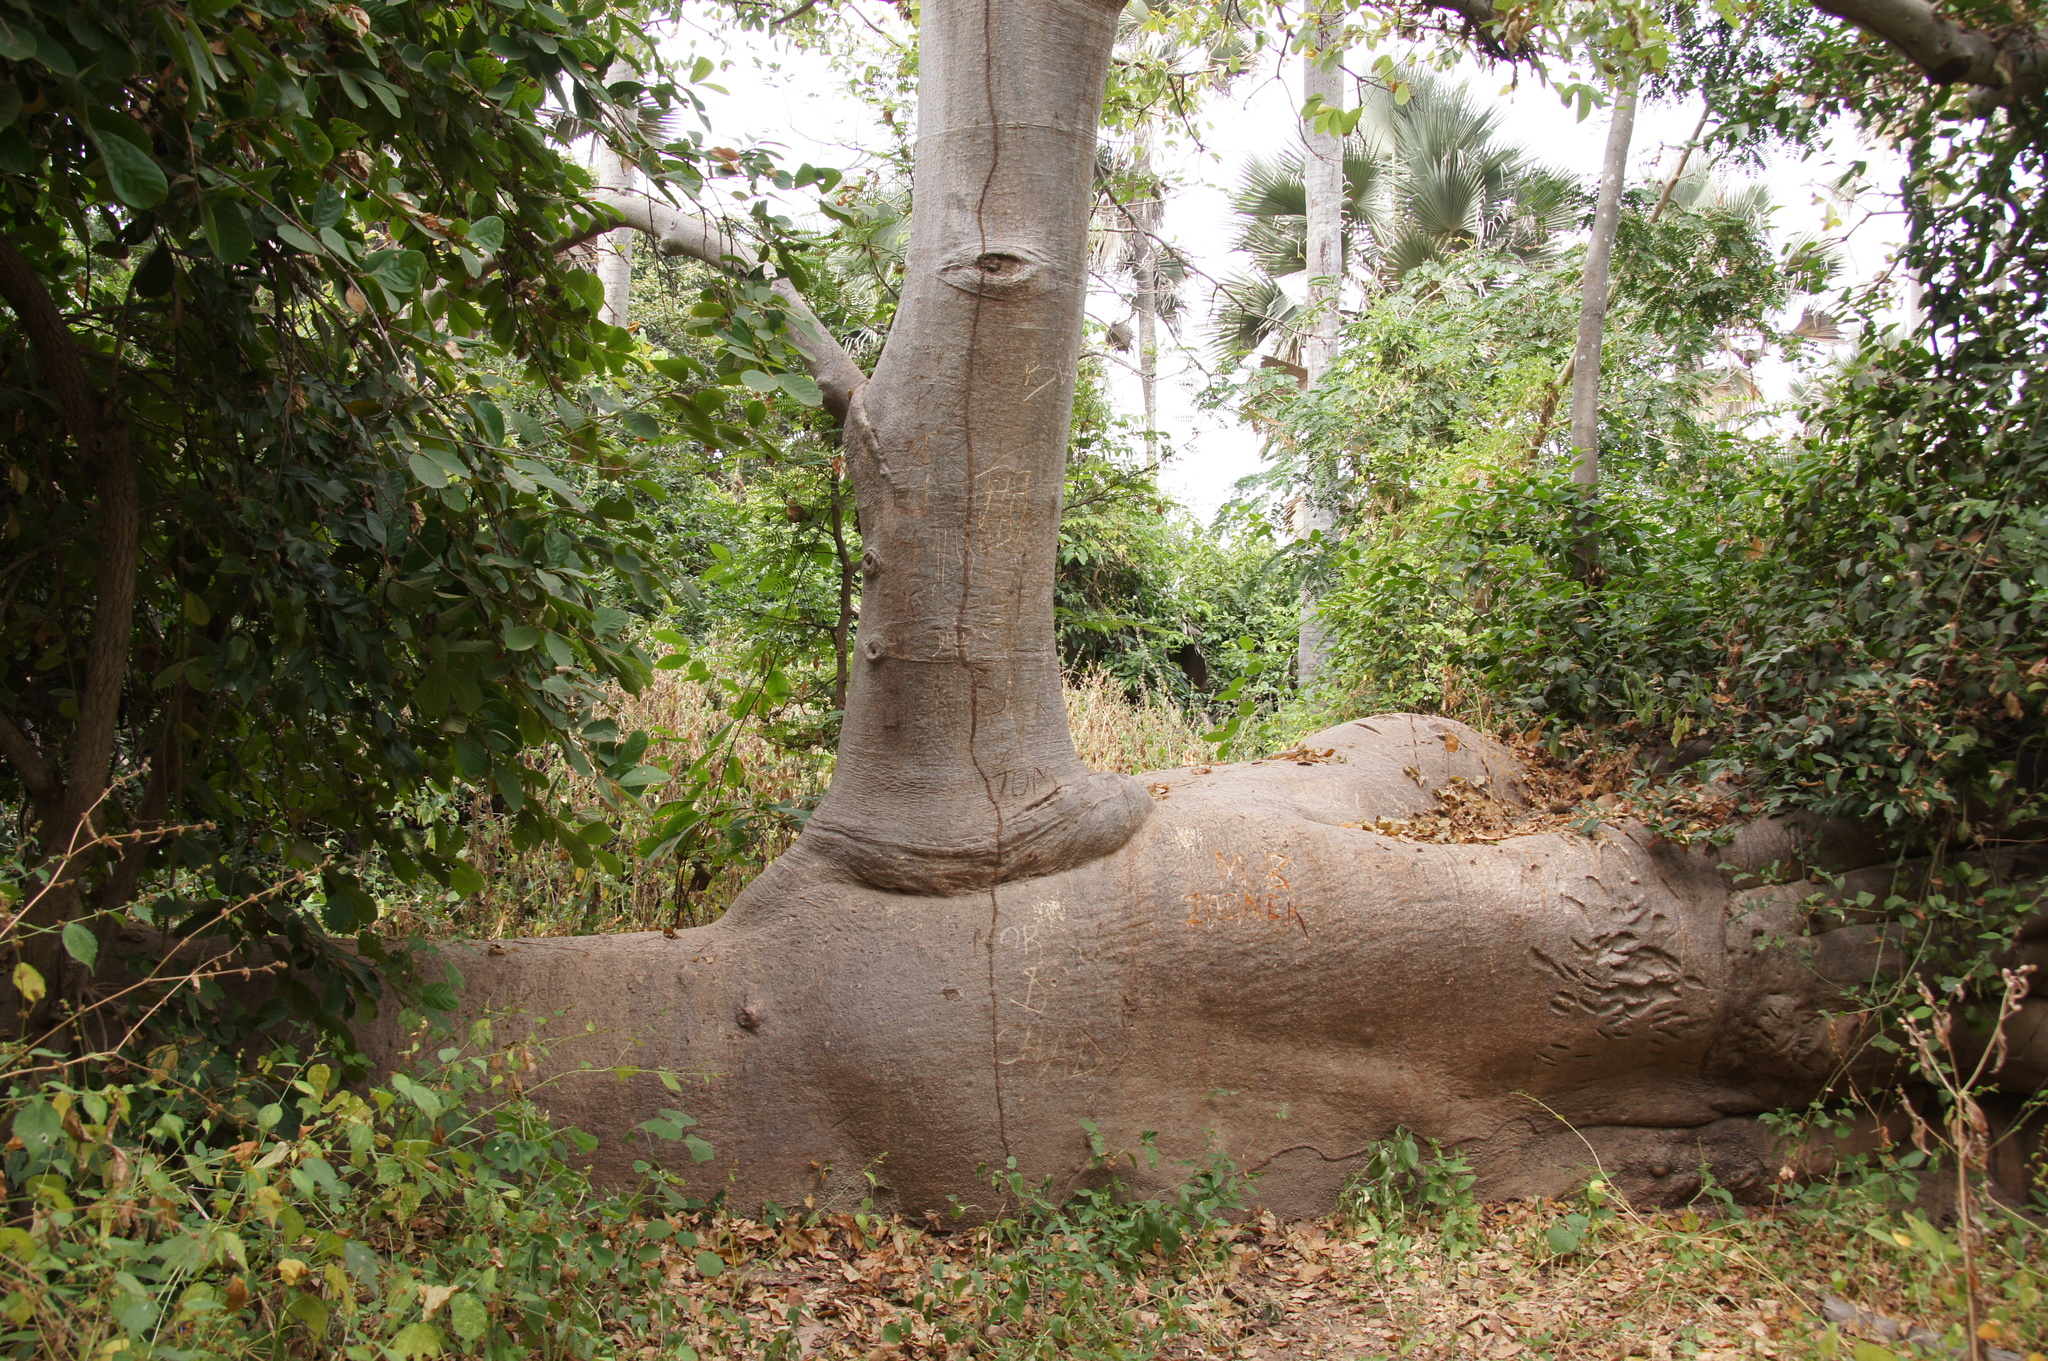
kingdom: Plantae
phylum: Tracheophyta
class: Magnoliopsida
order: Malvales
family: Malvaceae
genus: Adansonia
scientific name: Adansonia digitata
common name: Dead-rat-tree
